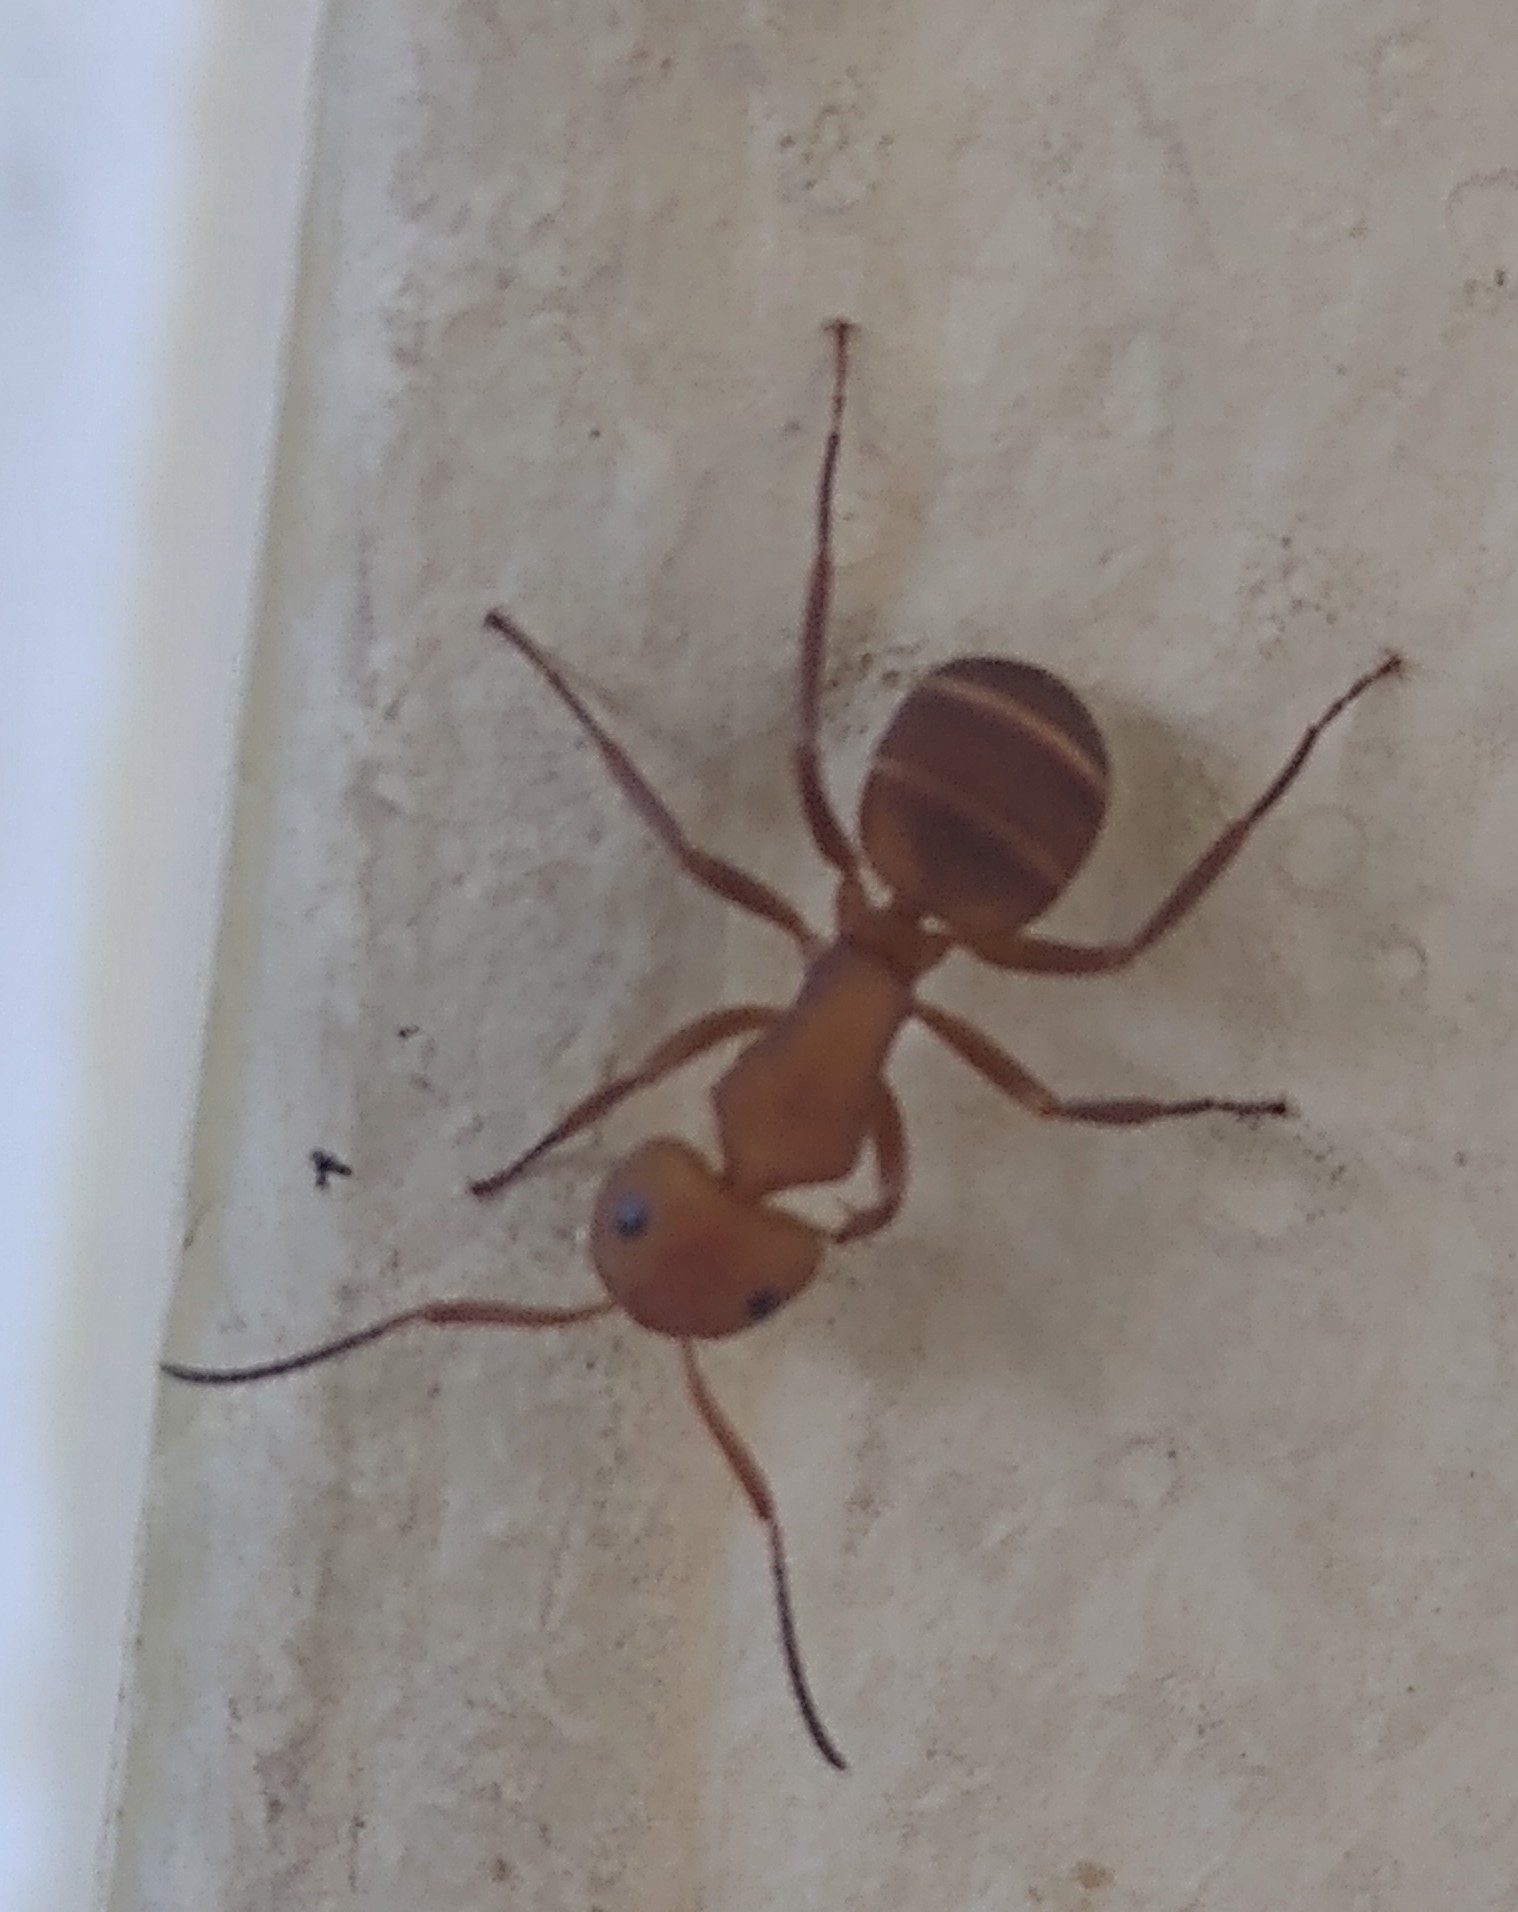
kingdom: Animalia
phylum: Arthropoda
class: Insecta
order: Hymenoptera
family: Formicidae
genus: Camponotus
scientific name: Camponotus rectangularis
